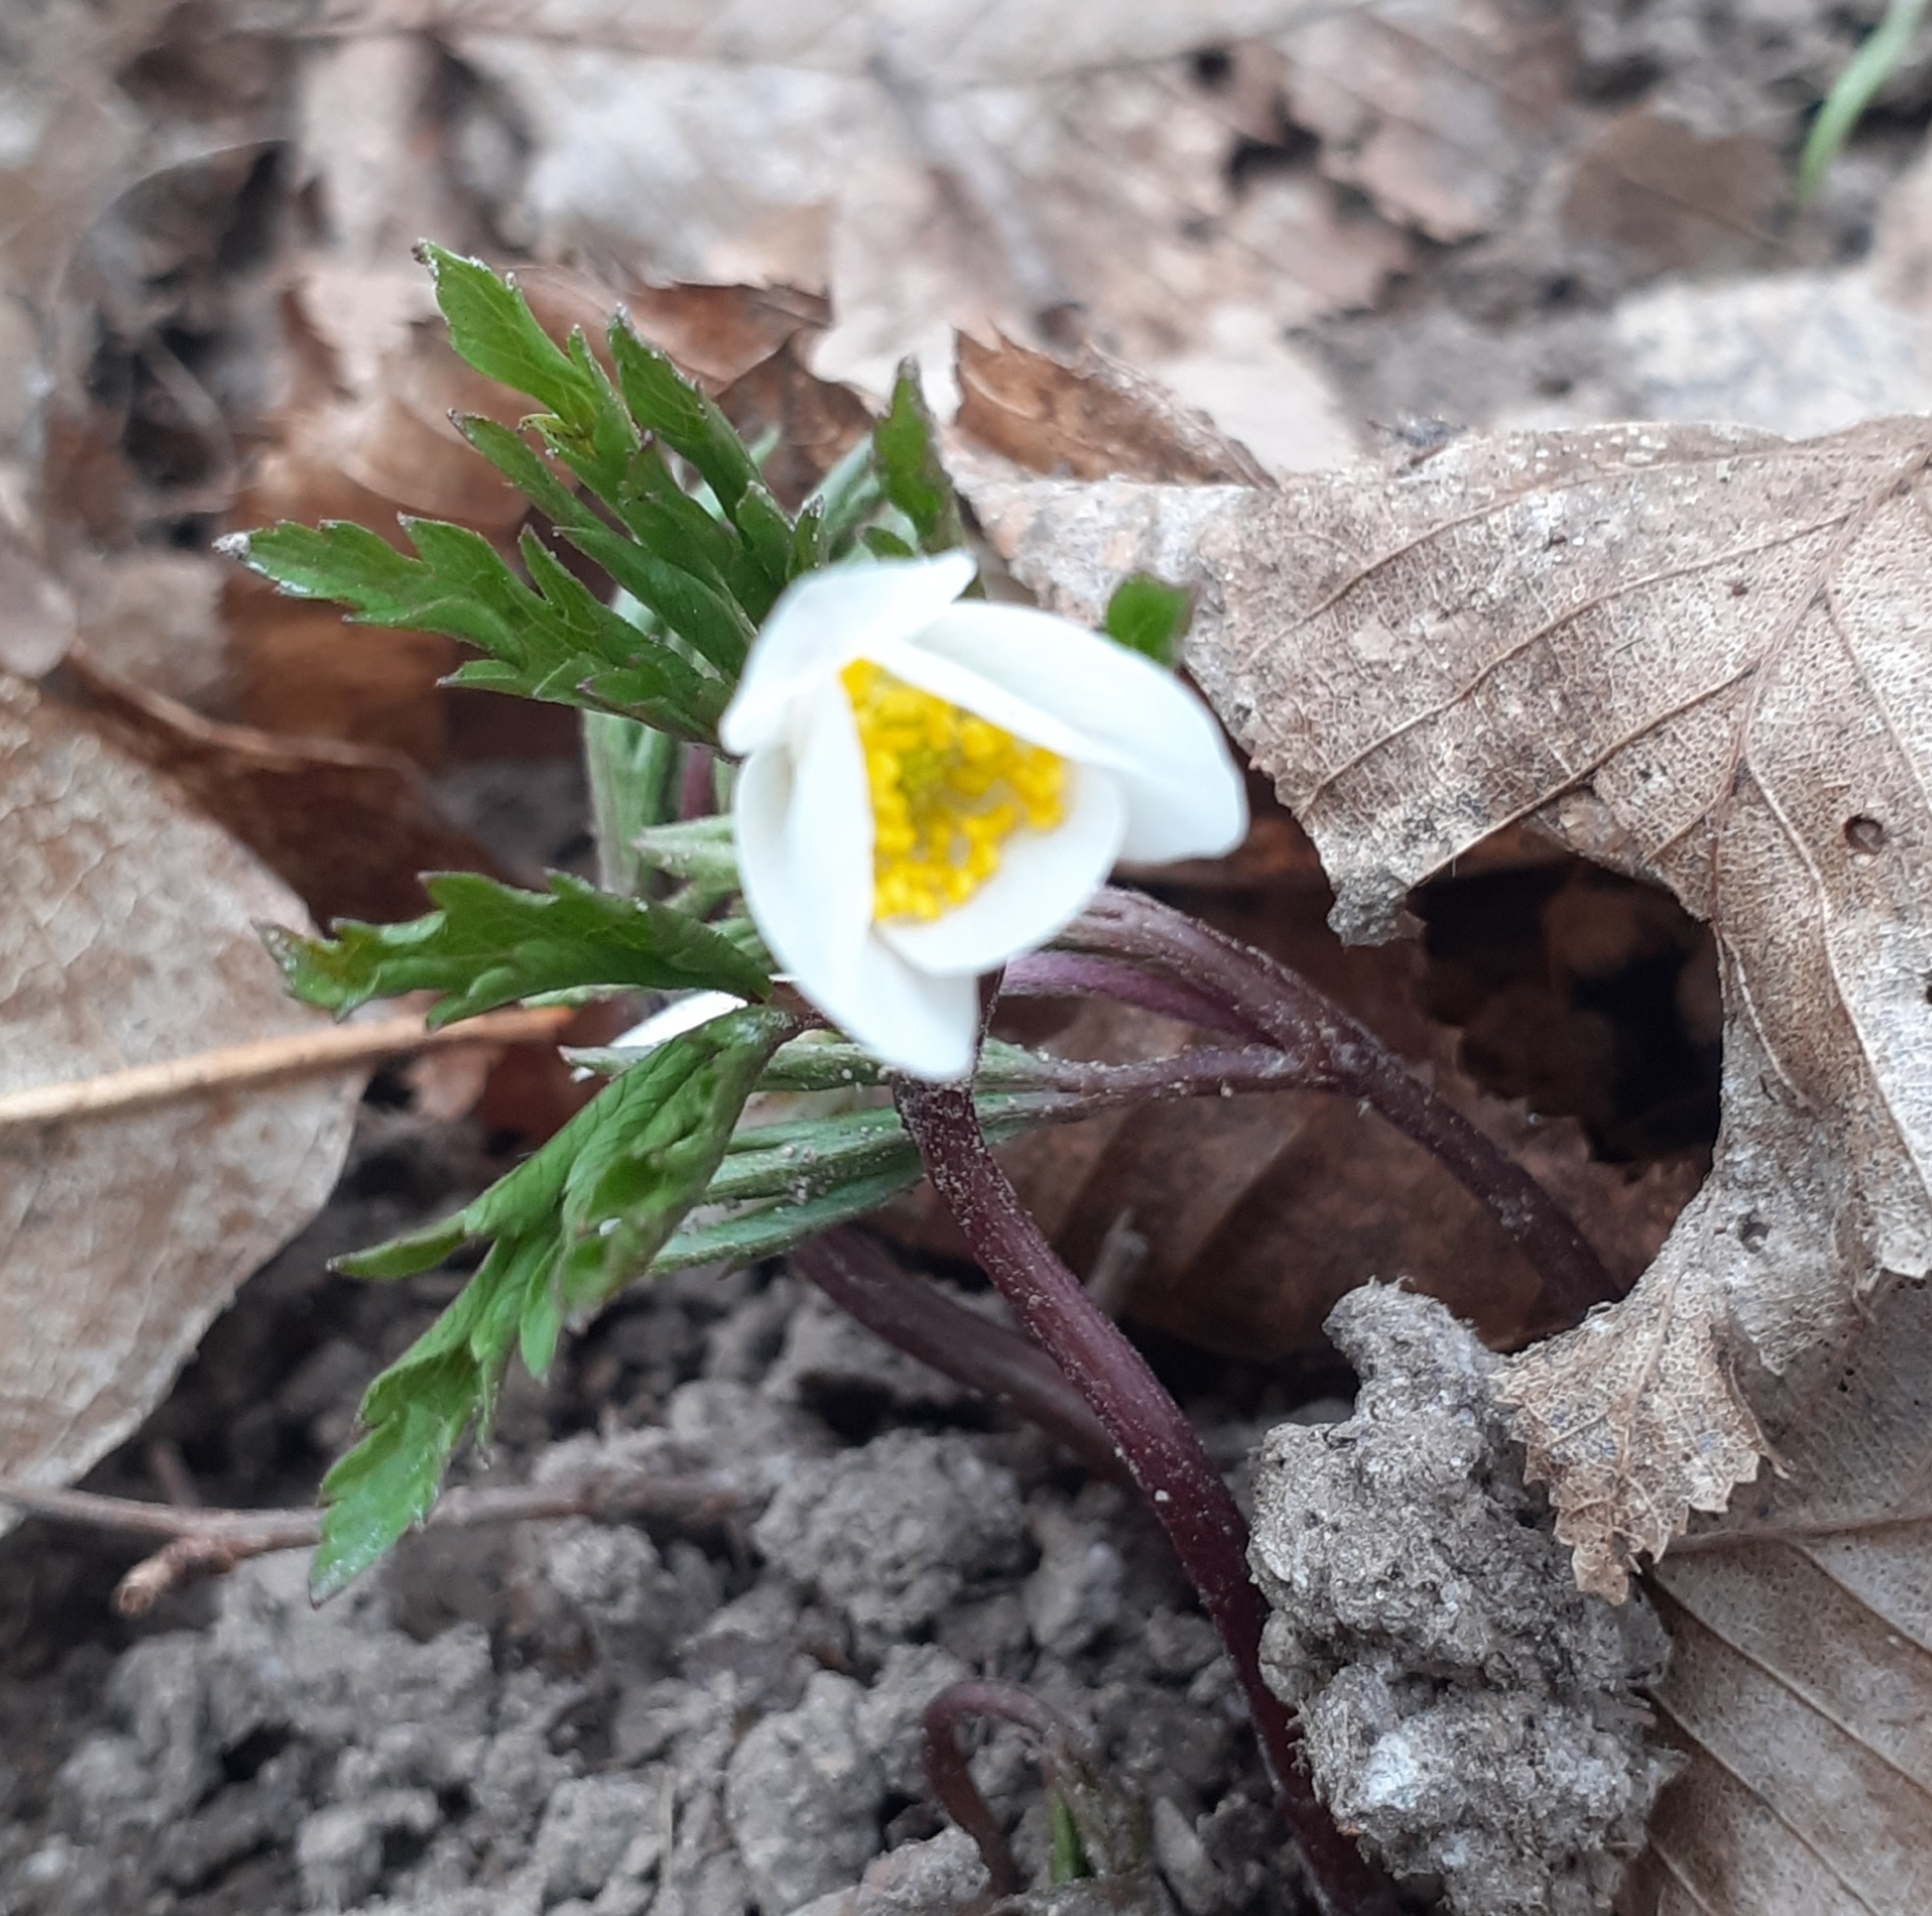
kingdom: Plantae
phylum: Tracheophyta
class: Magnoliopsida
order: Ranunculales
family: Ranunculaceae
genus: Anemone
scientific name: Anemone nemorosa
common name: Wood anemone
